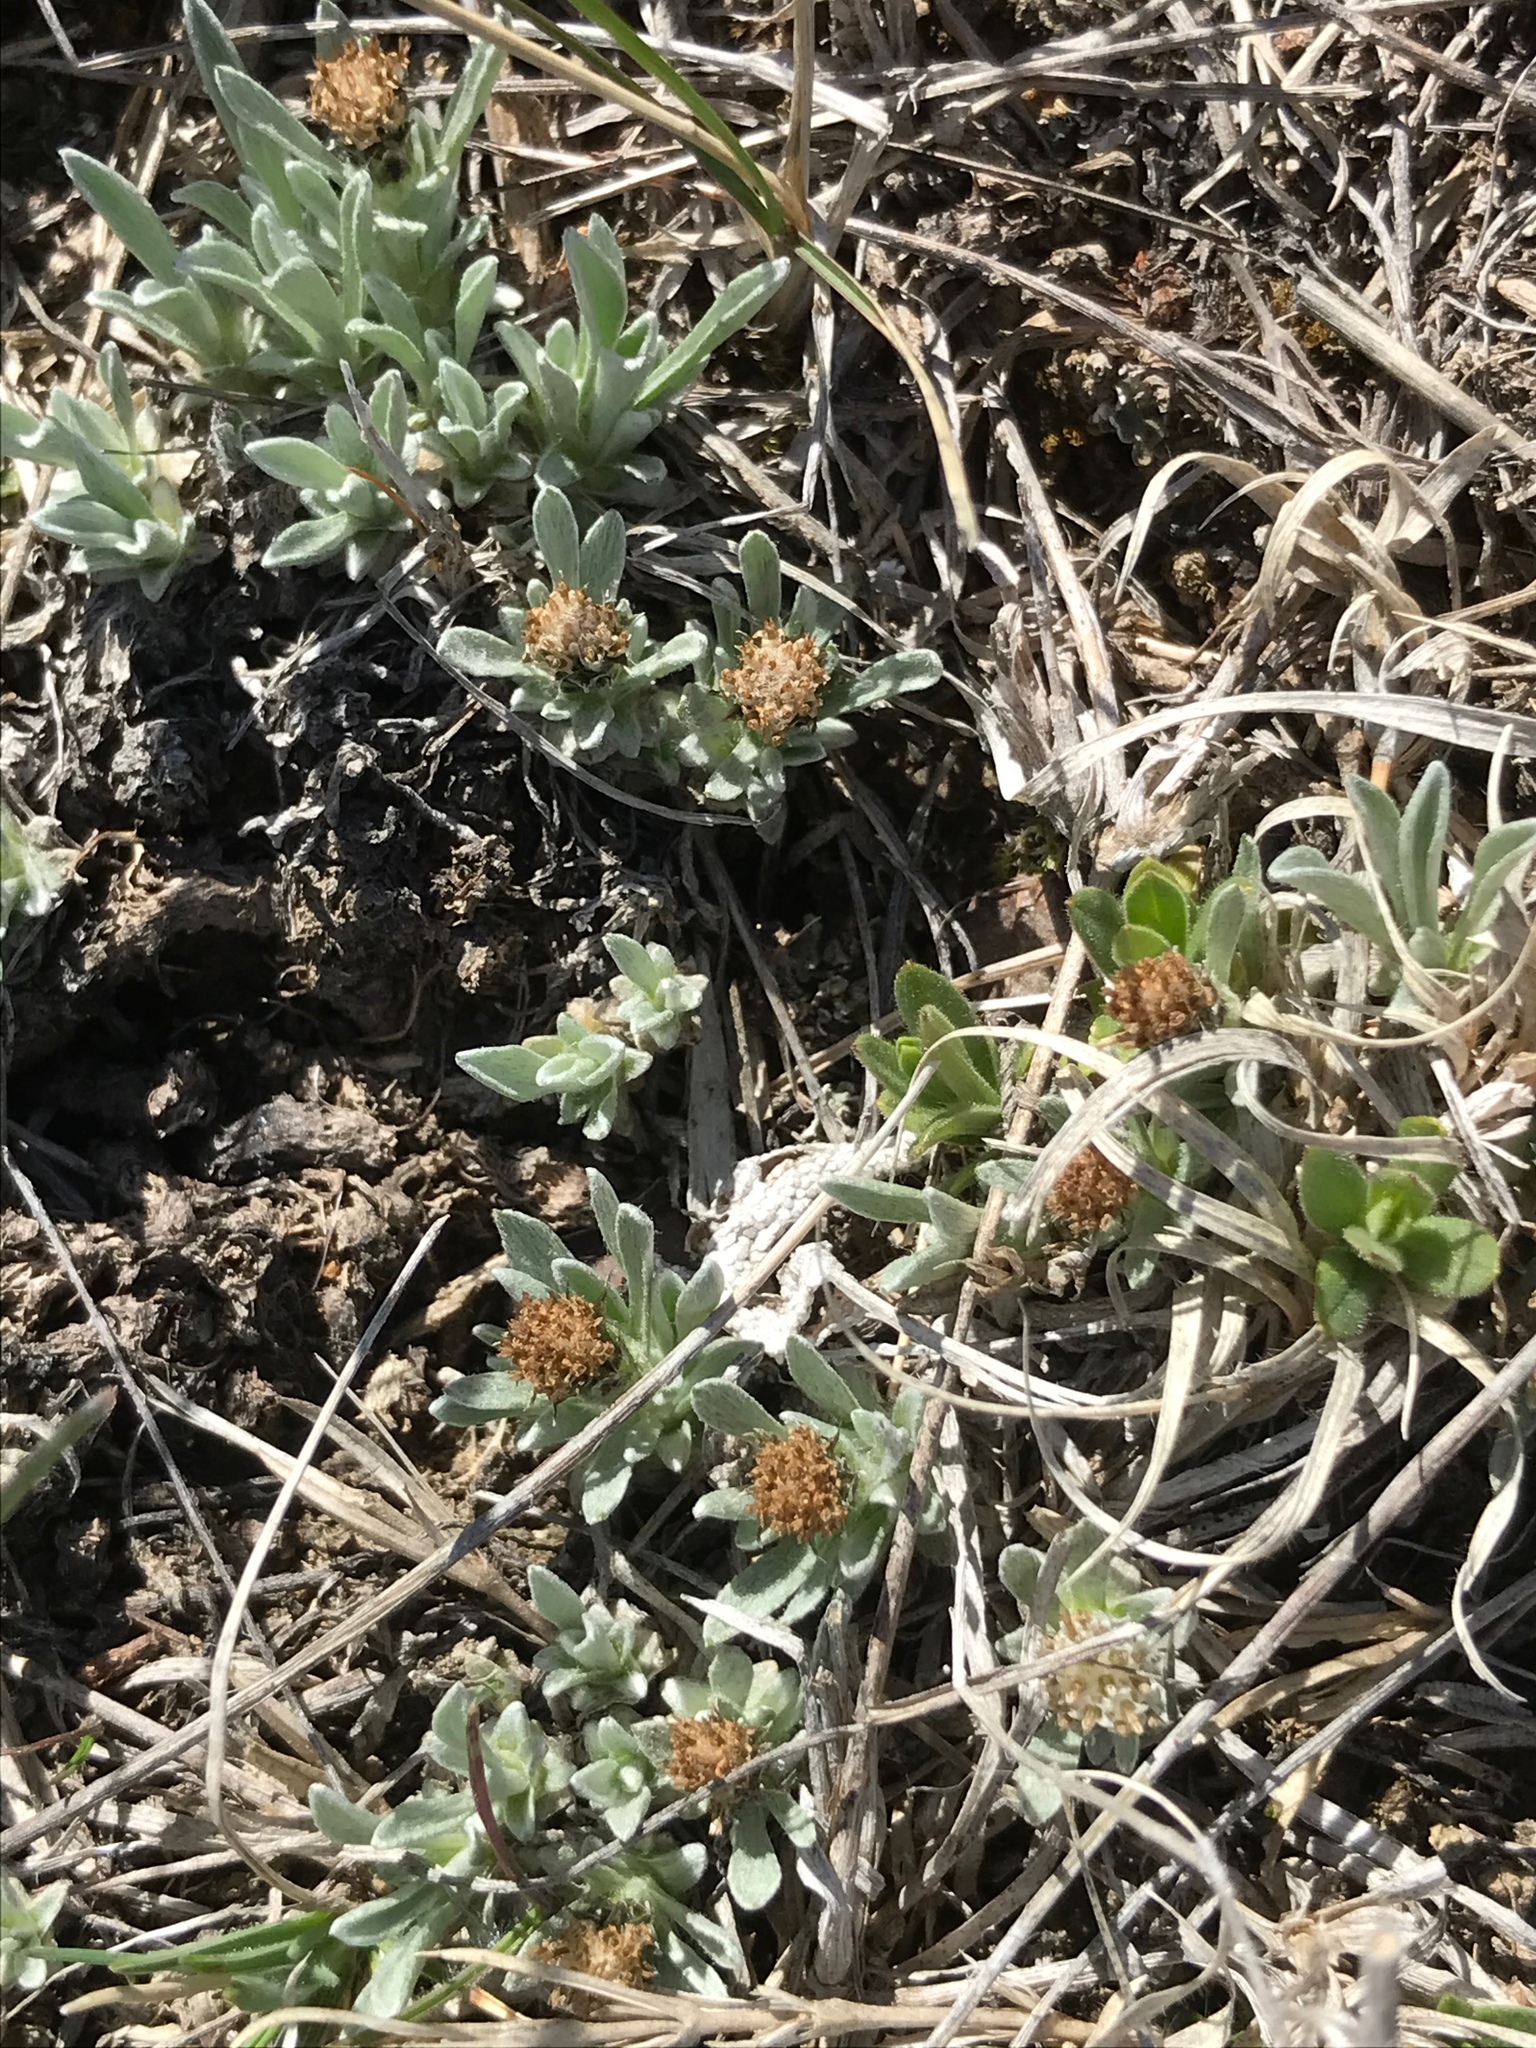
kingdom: Plantae
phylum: Tracheophyta
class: Magnoliopsida
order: Asterales
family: Asteraceae
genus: Antennaria
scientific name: Antennaria dimorpha
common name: Cushion pussytoes
